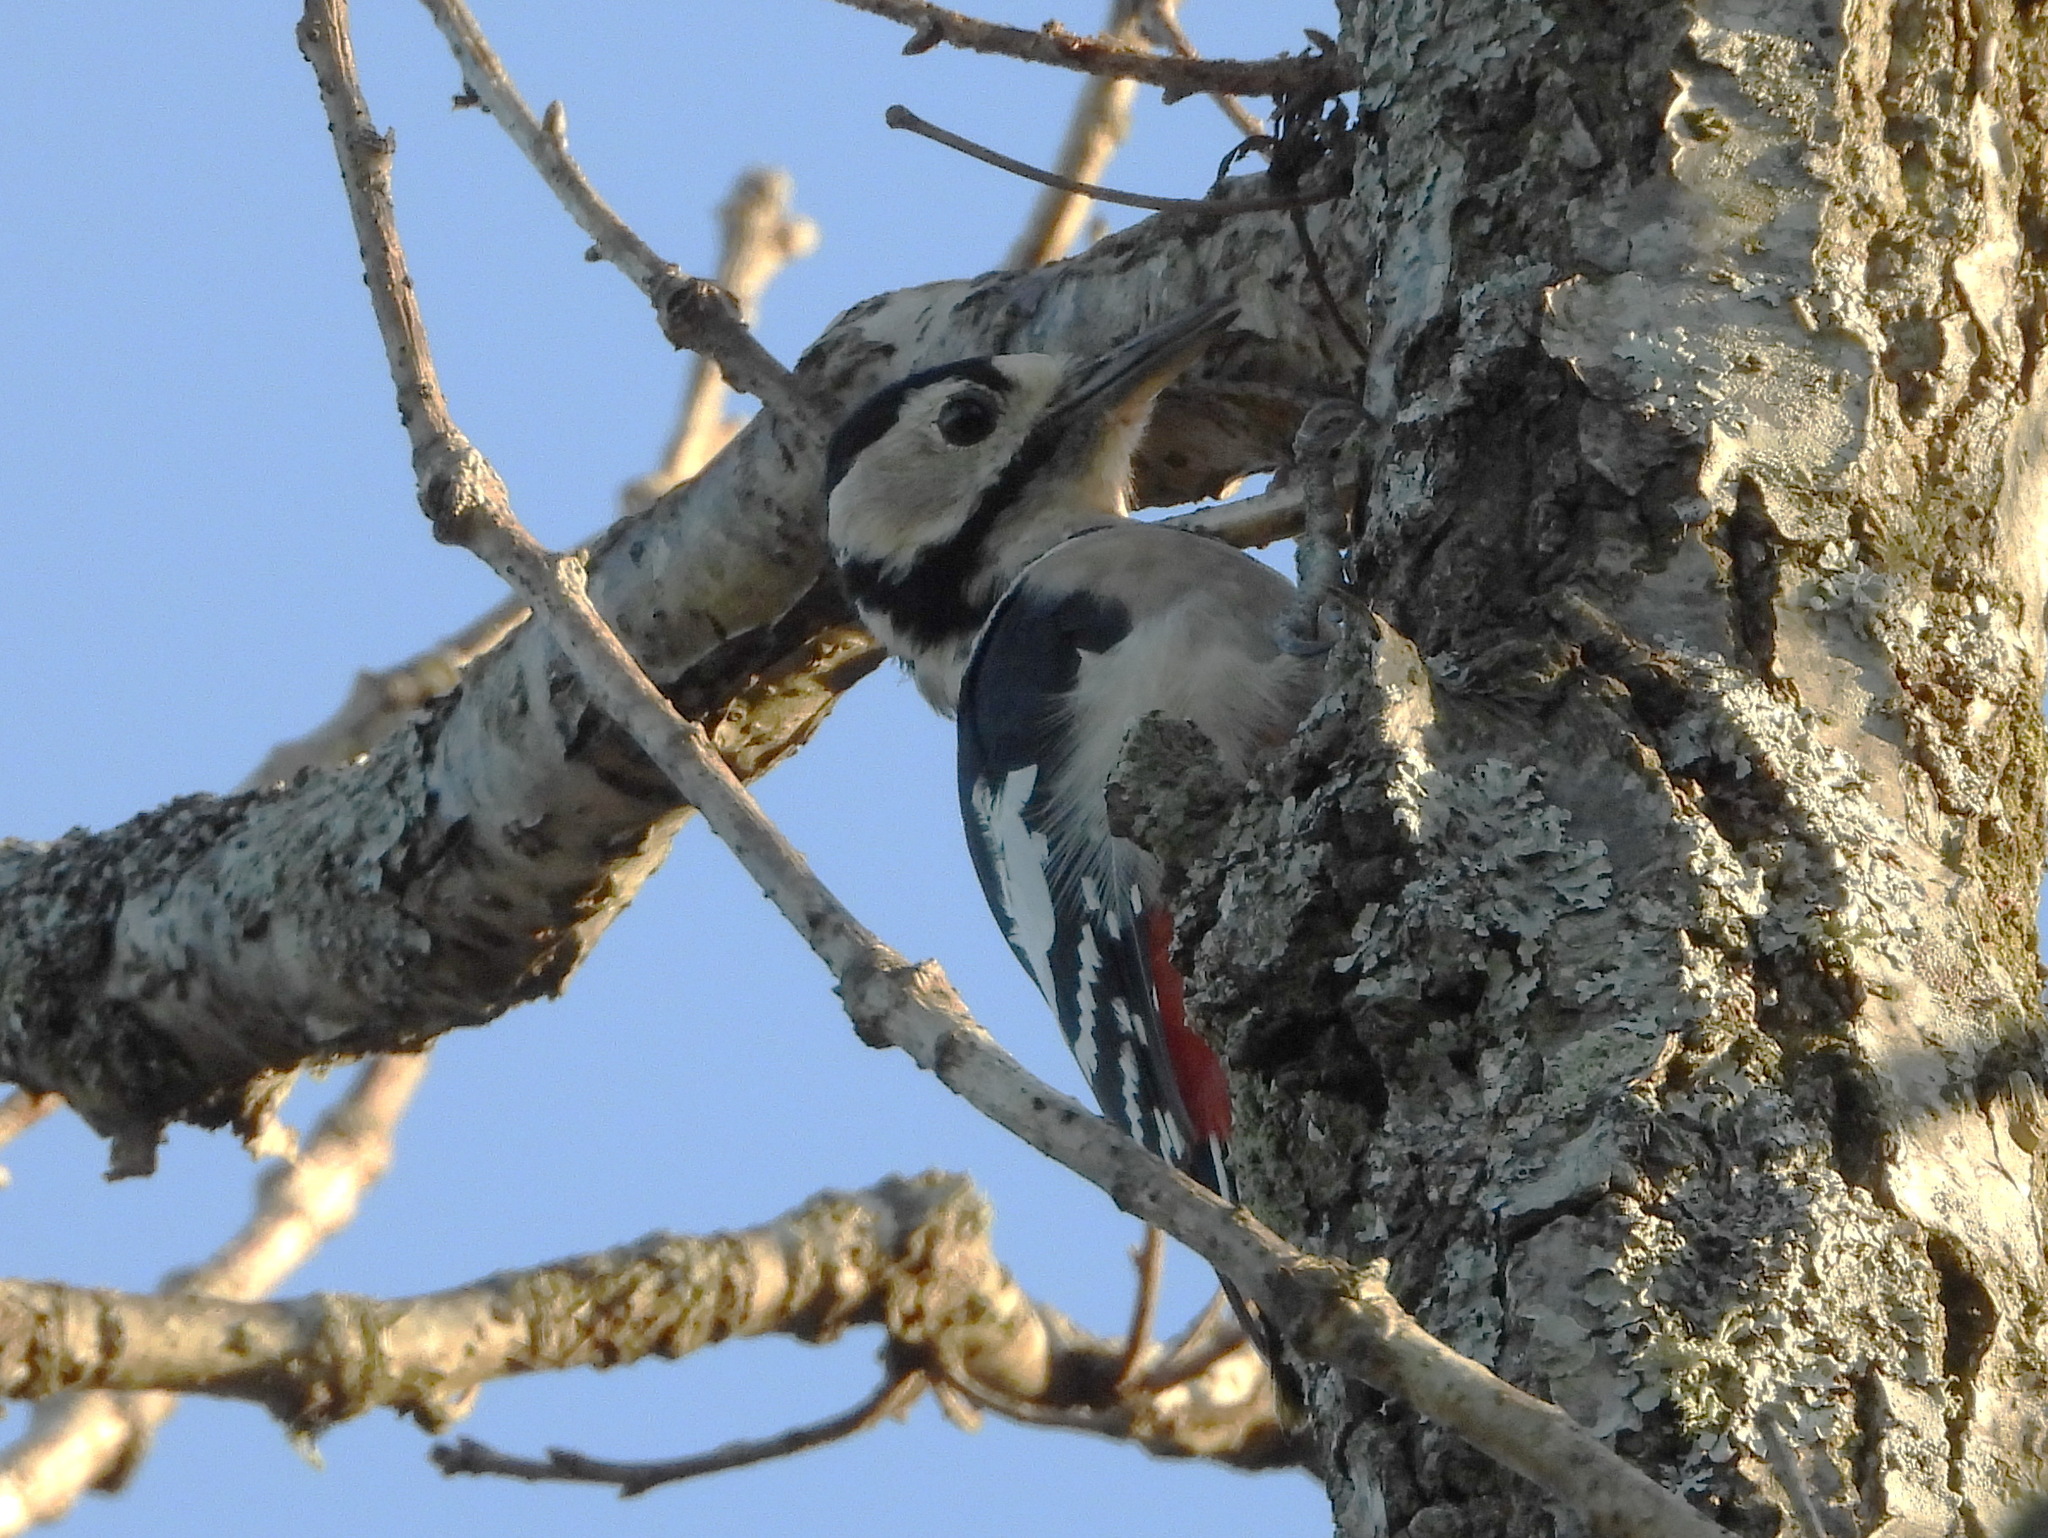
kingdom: Animalia
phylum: Chordata
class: Aves
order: Piciformes
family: Picidae
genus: Dendrocopos
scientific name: Dendrocopos leucotos
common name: White-backed woodpecker
